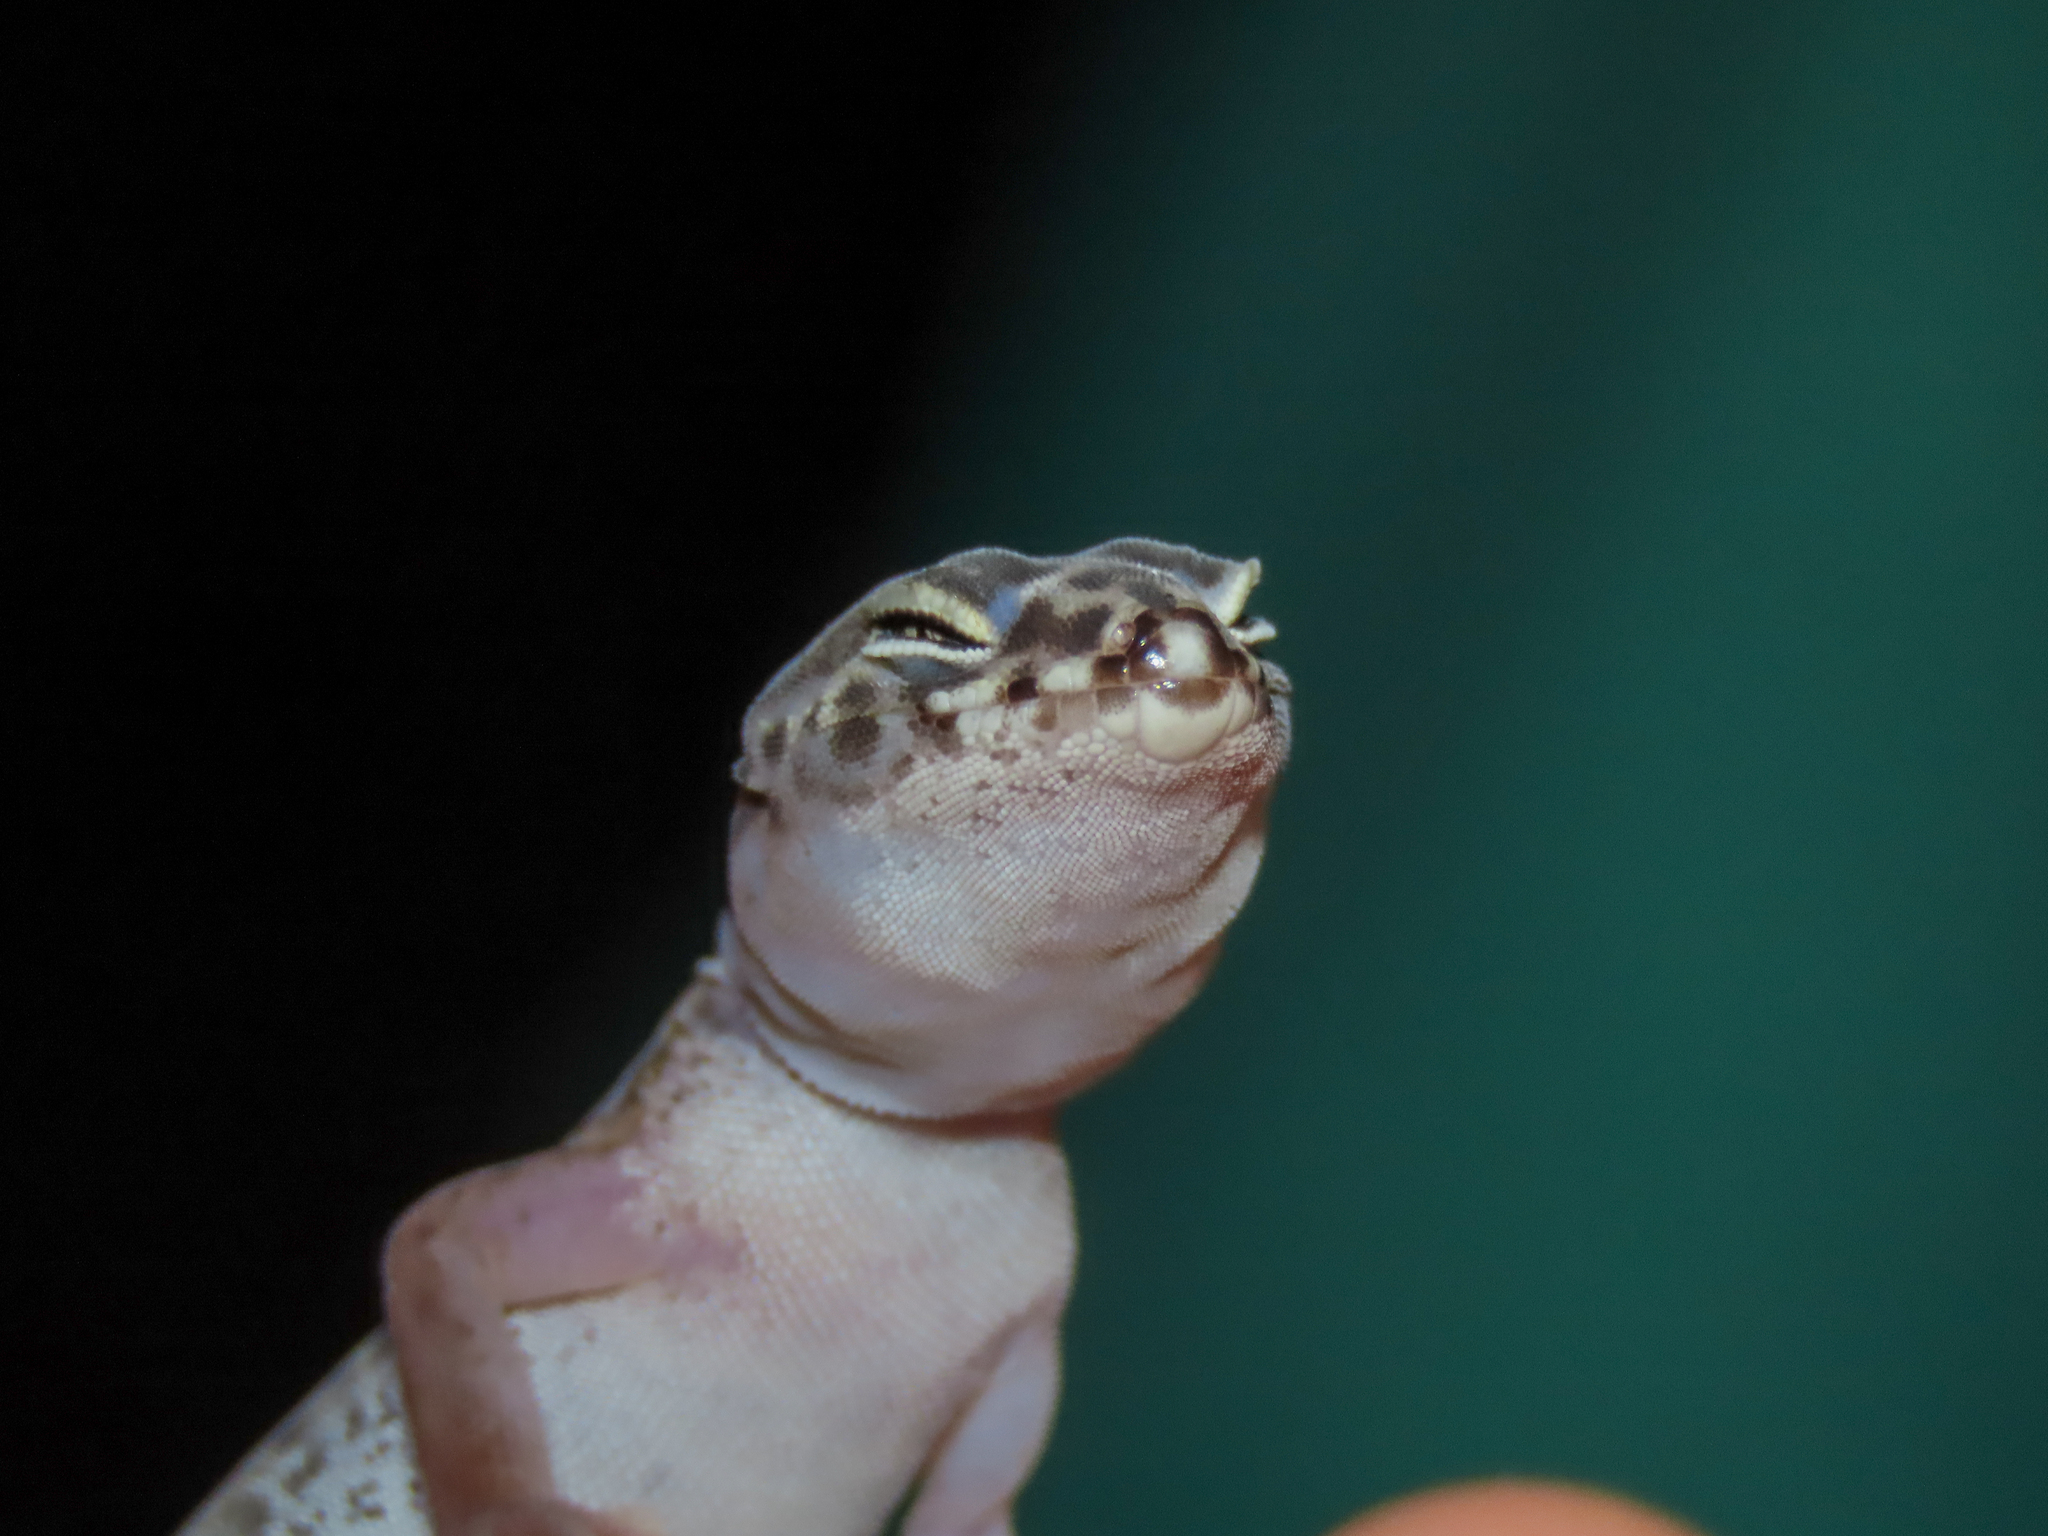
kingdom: Animalia
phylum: Chordata
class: Squamata
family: Eublepharidae
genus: Coleonyx
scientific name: Coleonyx variegatus
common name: Western banded gecko
